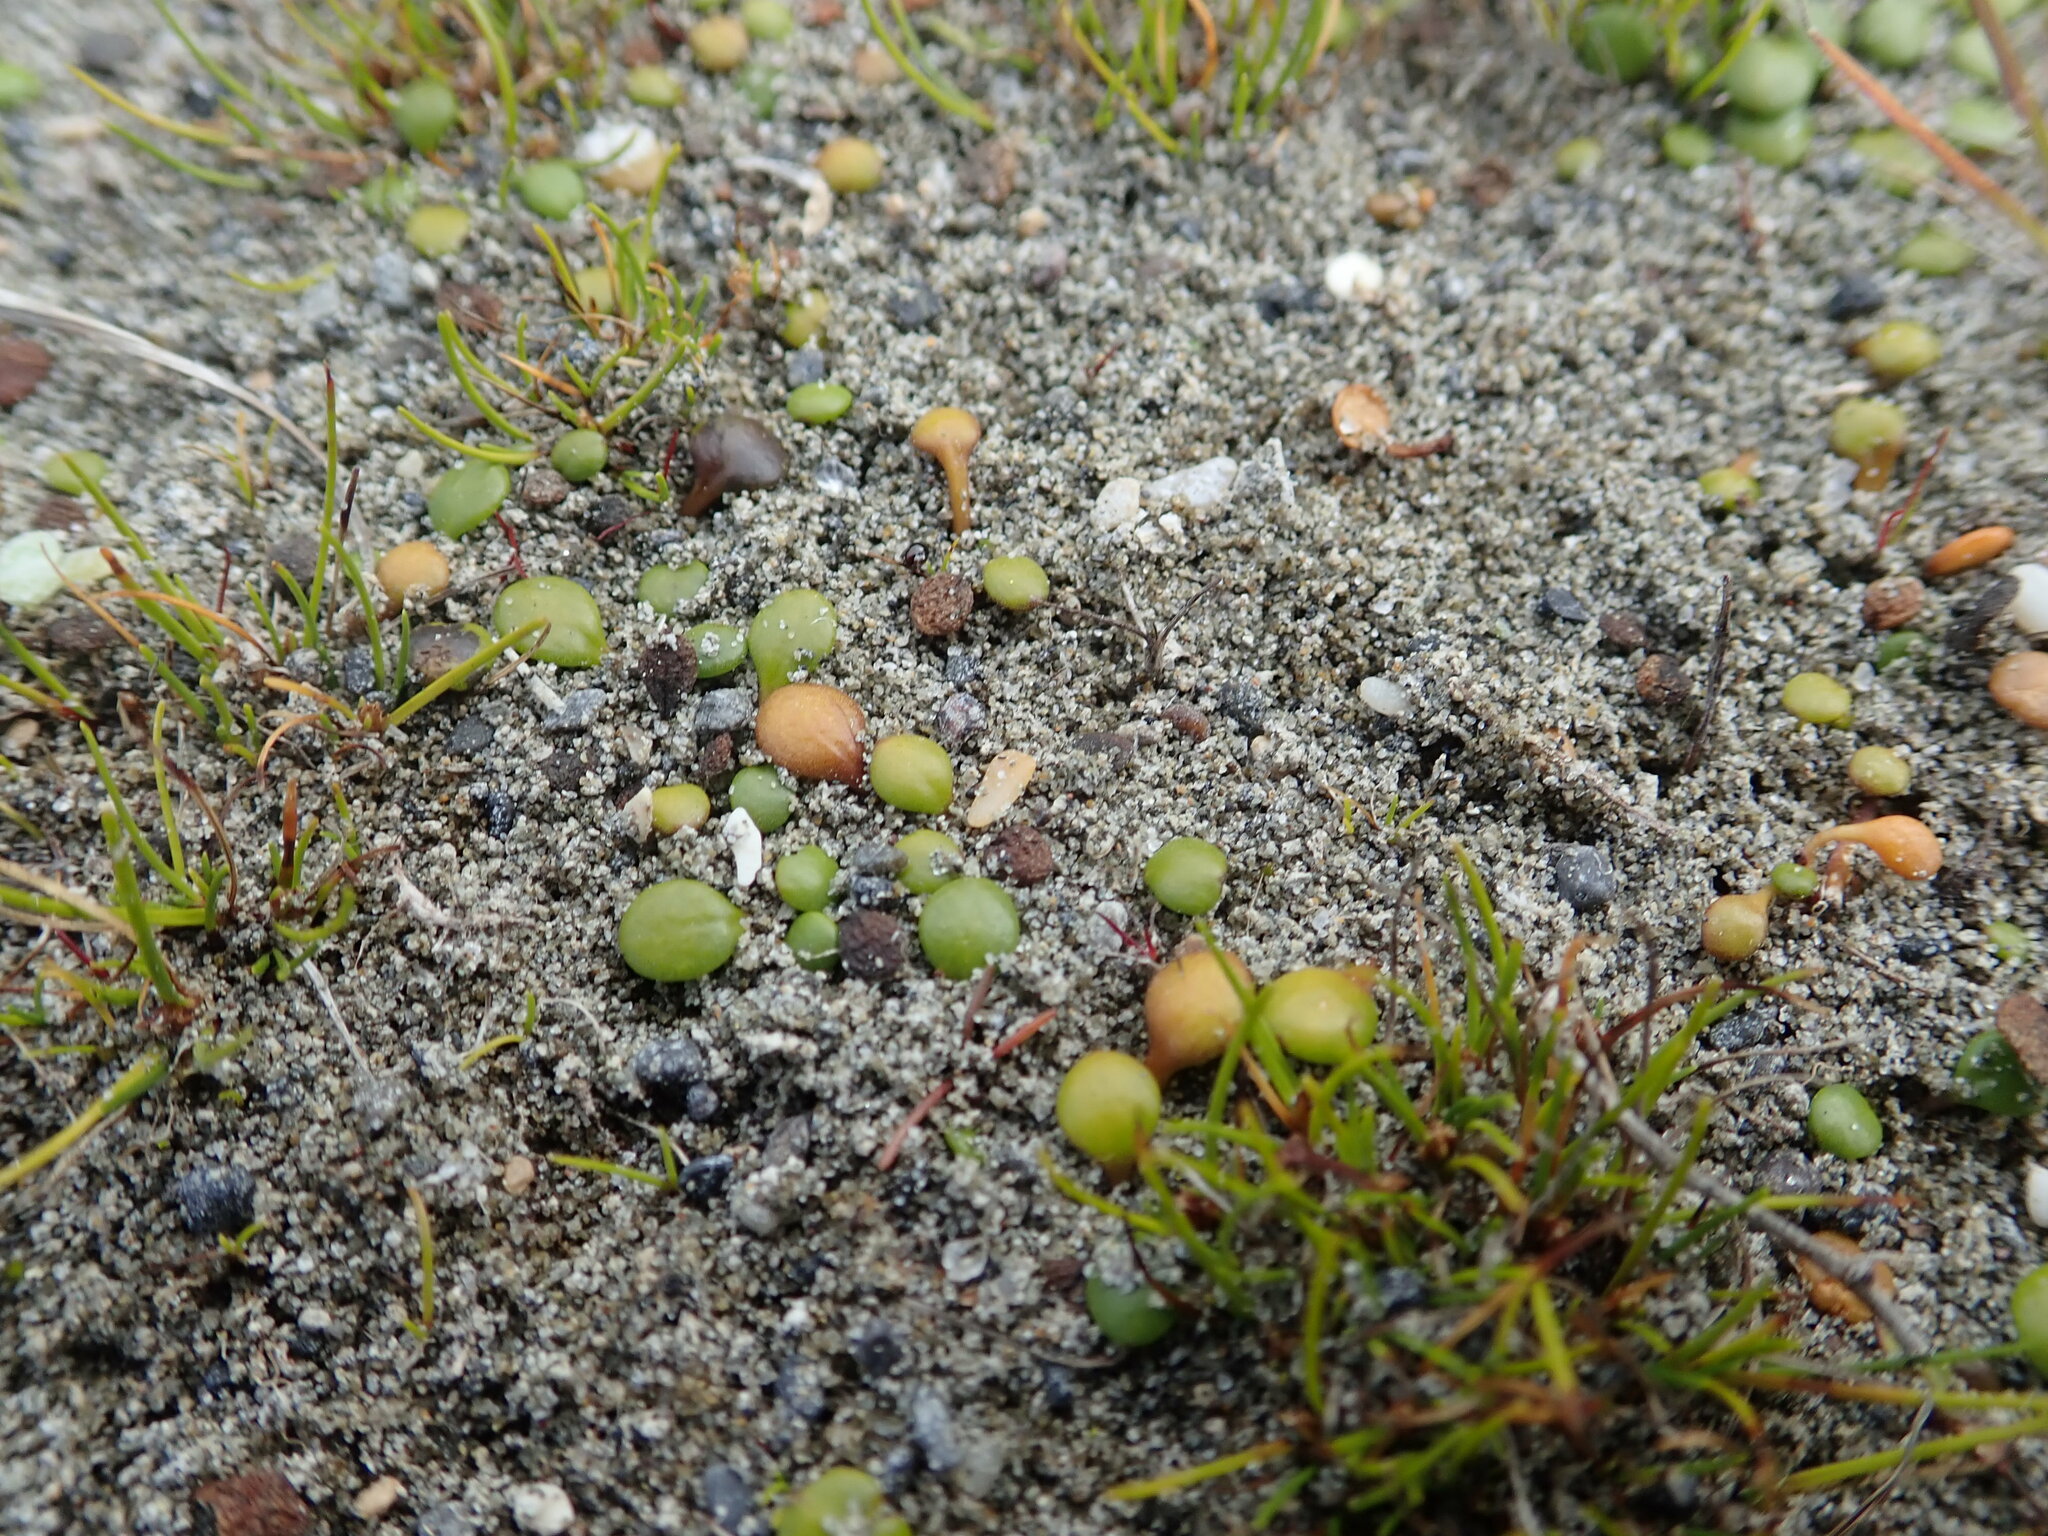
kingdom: Plantae
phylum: Tracheophyta
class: Magnoliopsida
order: Asterales
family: Goodeniaceae
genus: Goodenia
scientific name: Goodenia heenanii
